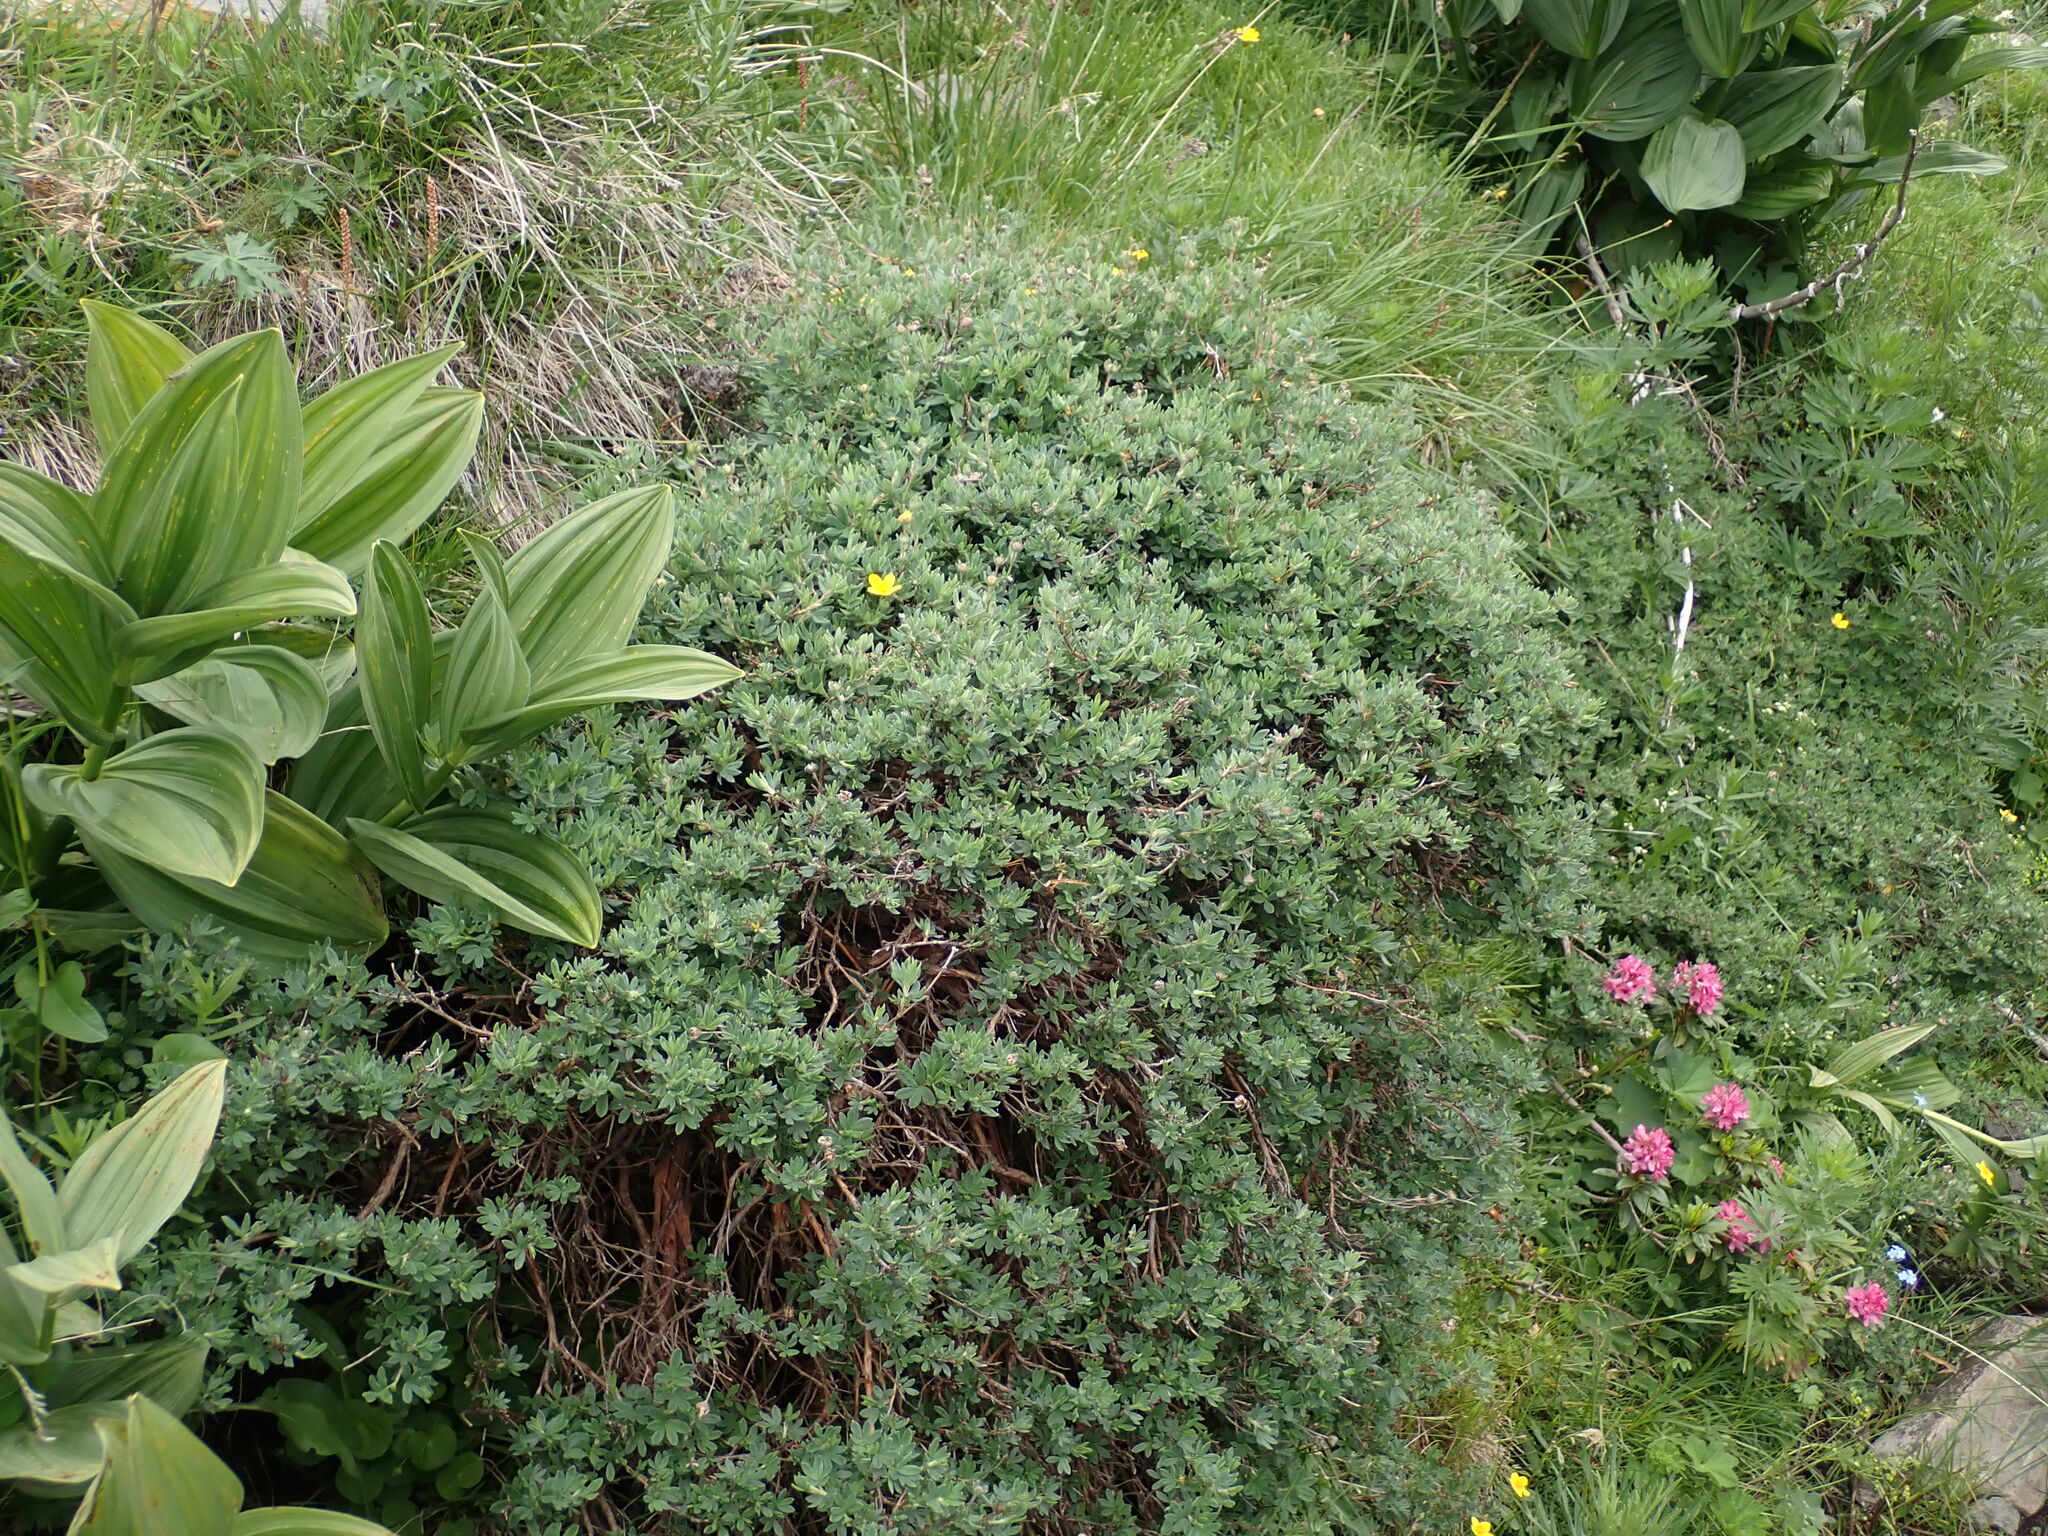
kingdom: Plantae
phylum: Tracheophyta
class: Magnoliopsida
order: Rosales
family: Rosaceae
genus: Dasiphora
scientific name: Dasiphora fruticosa
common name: Shrubby cinquefoil
